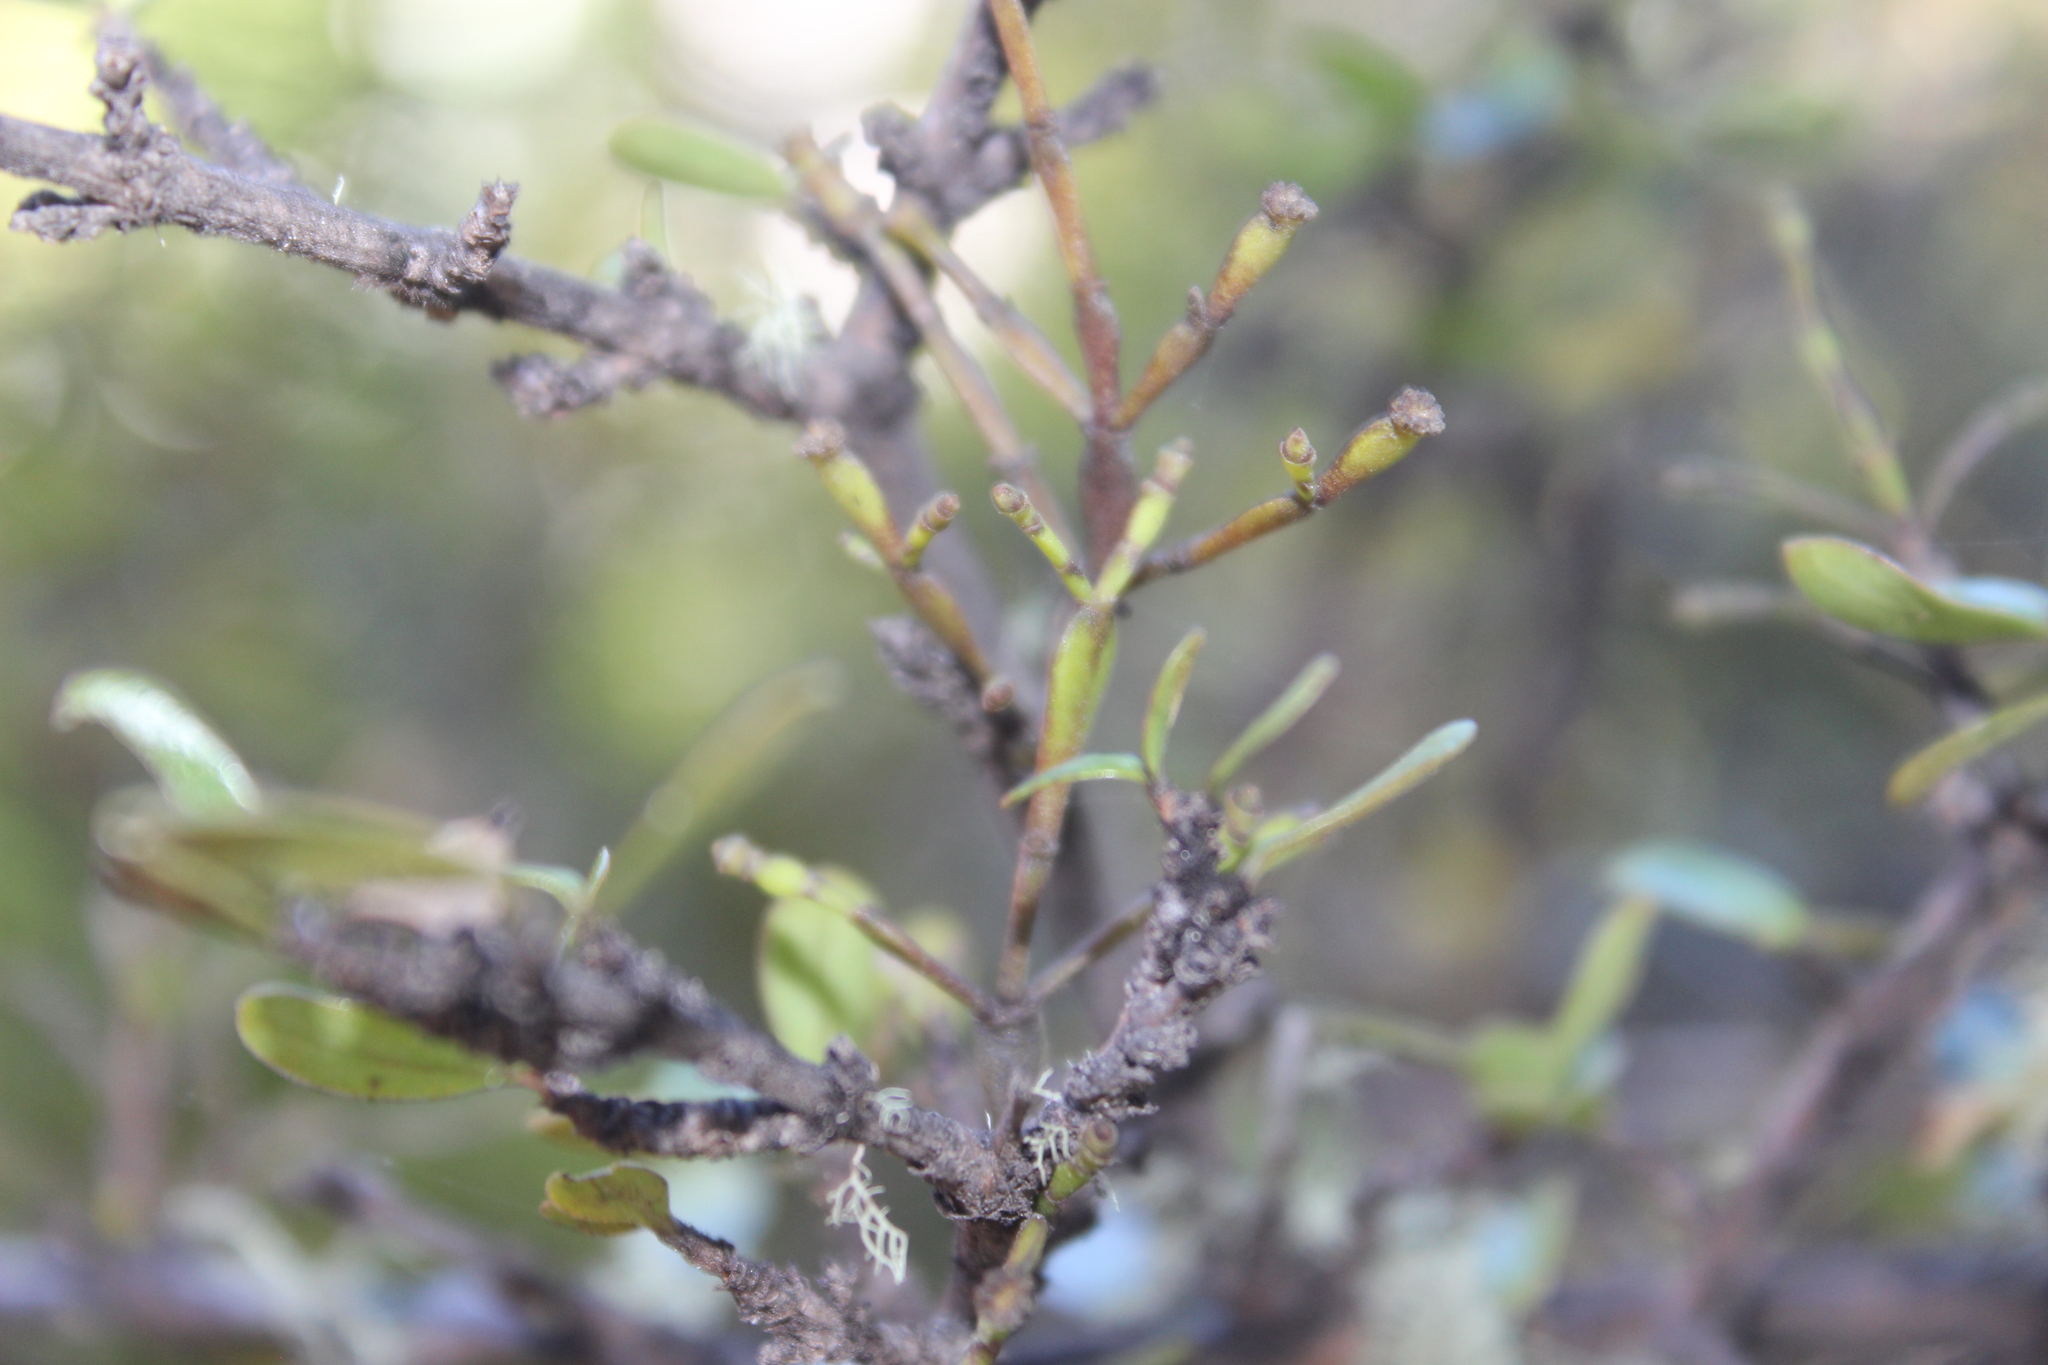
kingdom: Plantae
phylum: Tracheophyta
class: Magnoliopsida
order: Santalales
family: Viscaceae
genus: Korthalsella
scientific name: Korthalsella clavata
